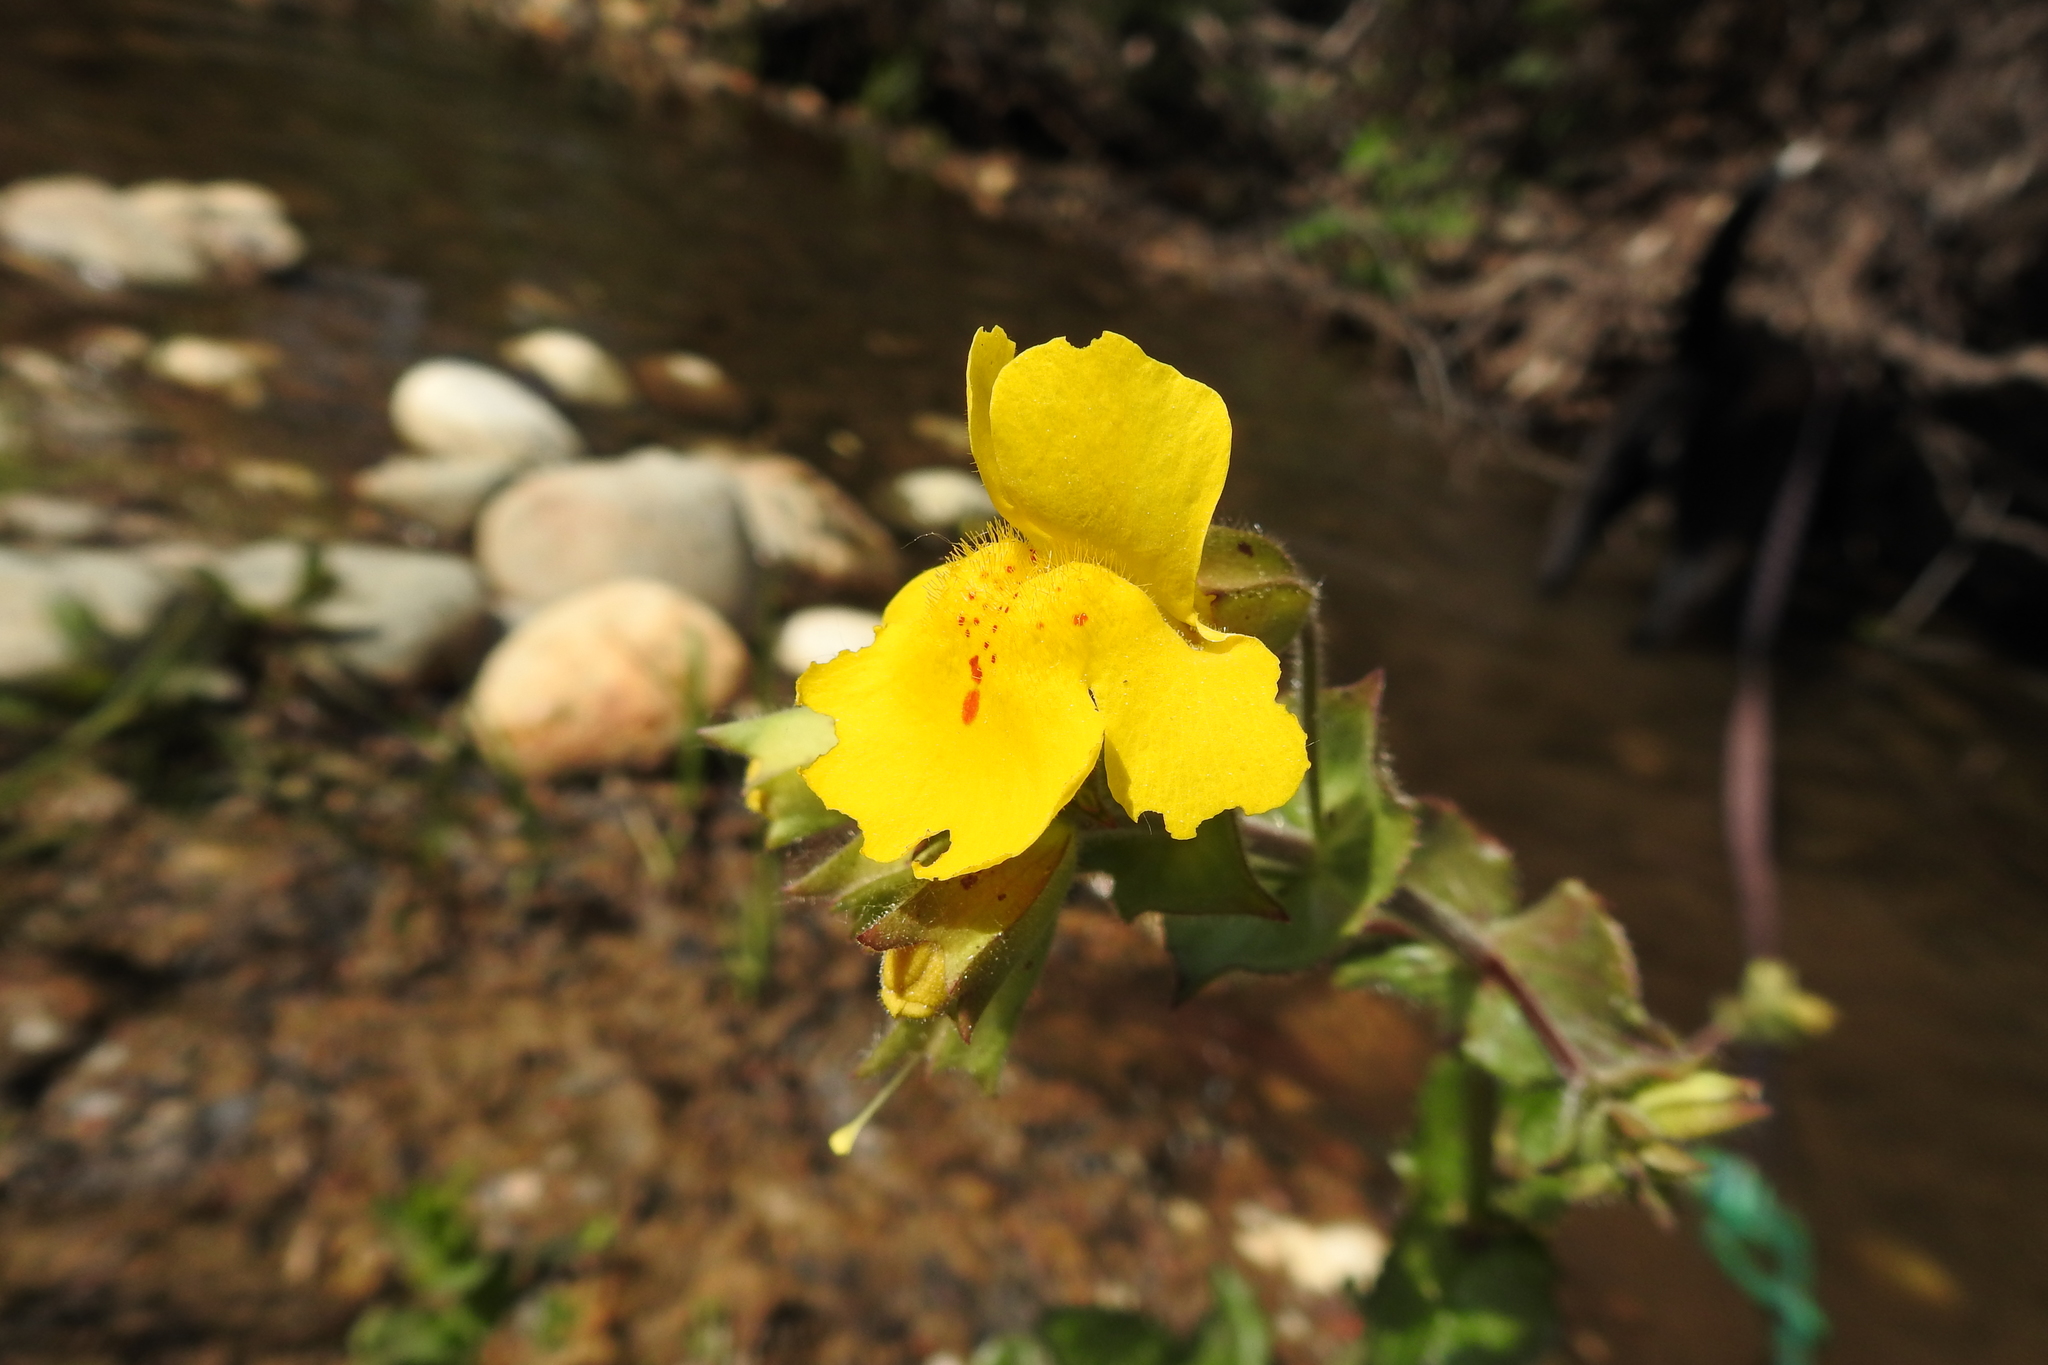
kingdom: Plantae
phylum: Tracheophyta
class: Magnoliopsida
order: Lamiales
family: Phrymaceae
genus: Erythranthe
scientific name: Erythranthe guttata
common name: Monkeyflower
